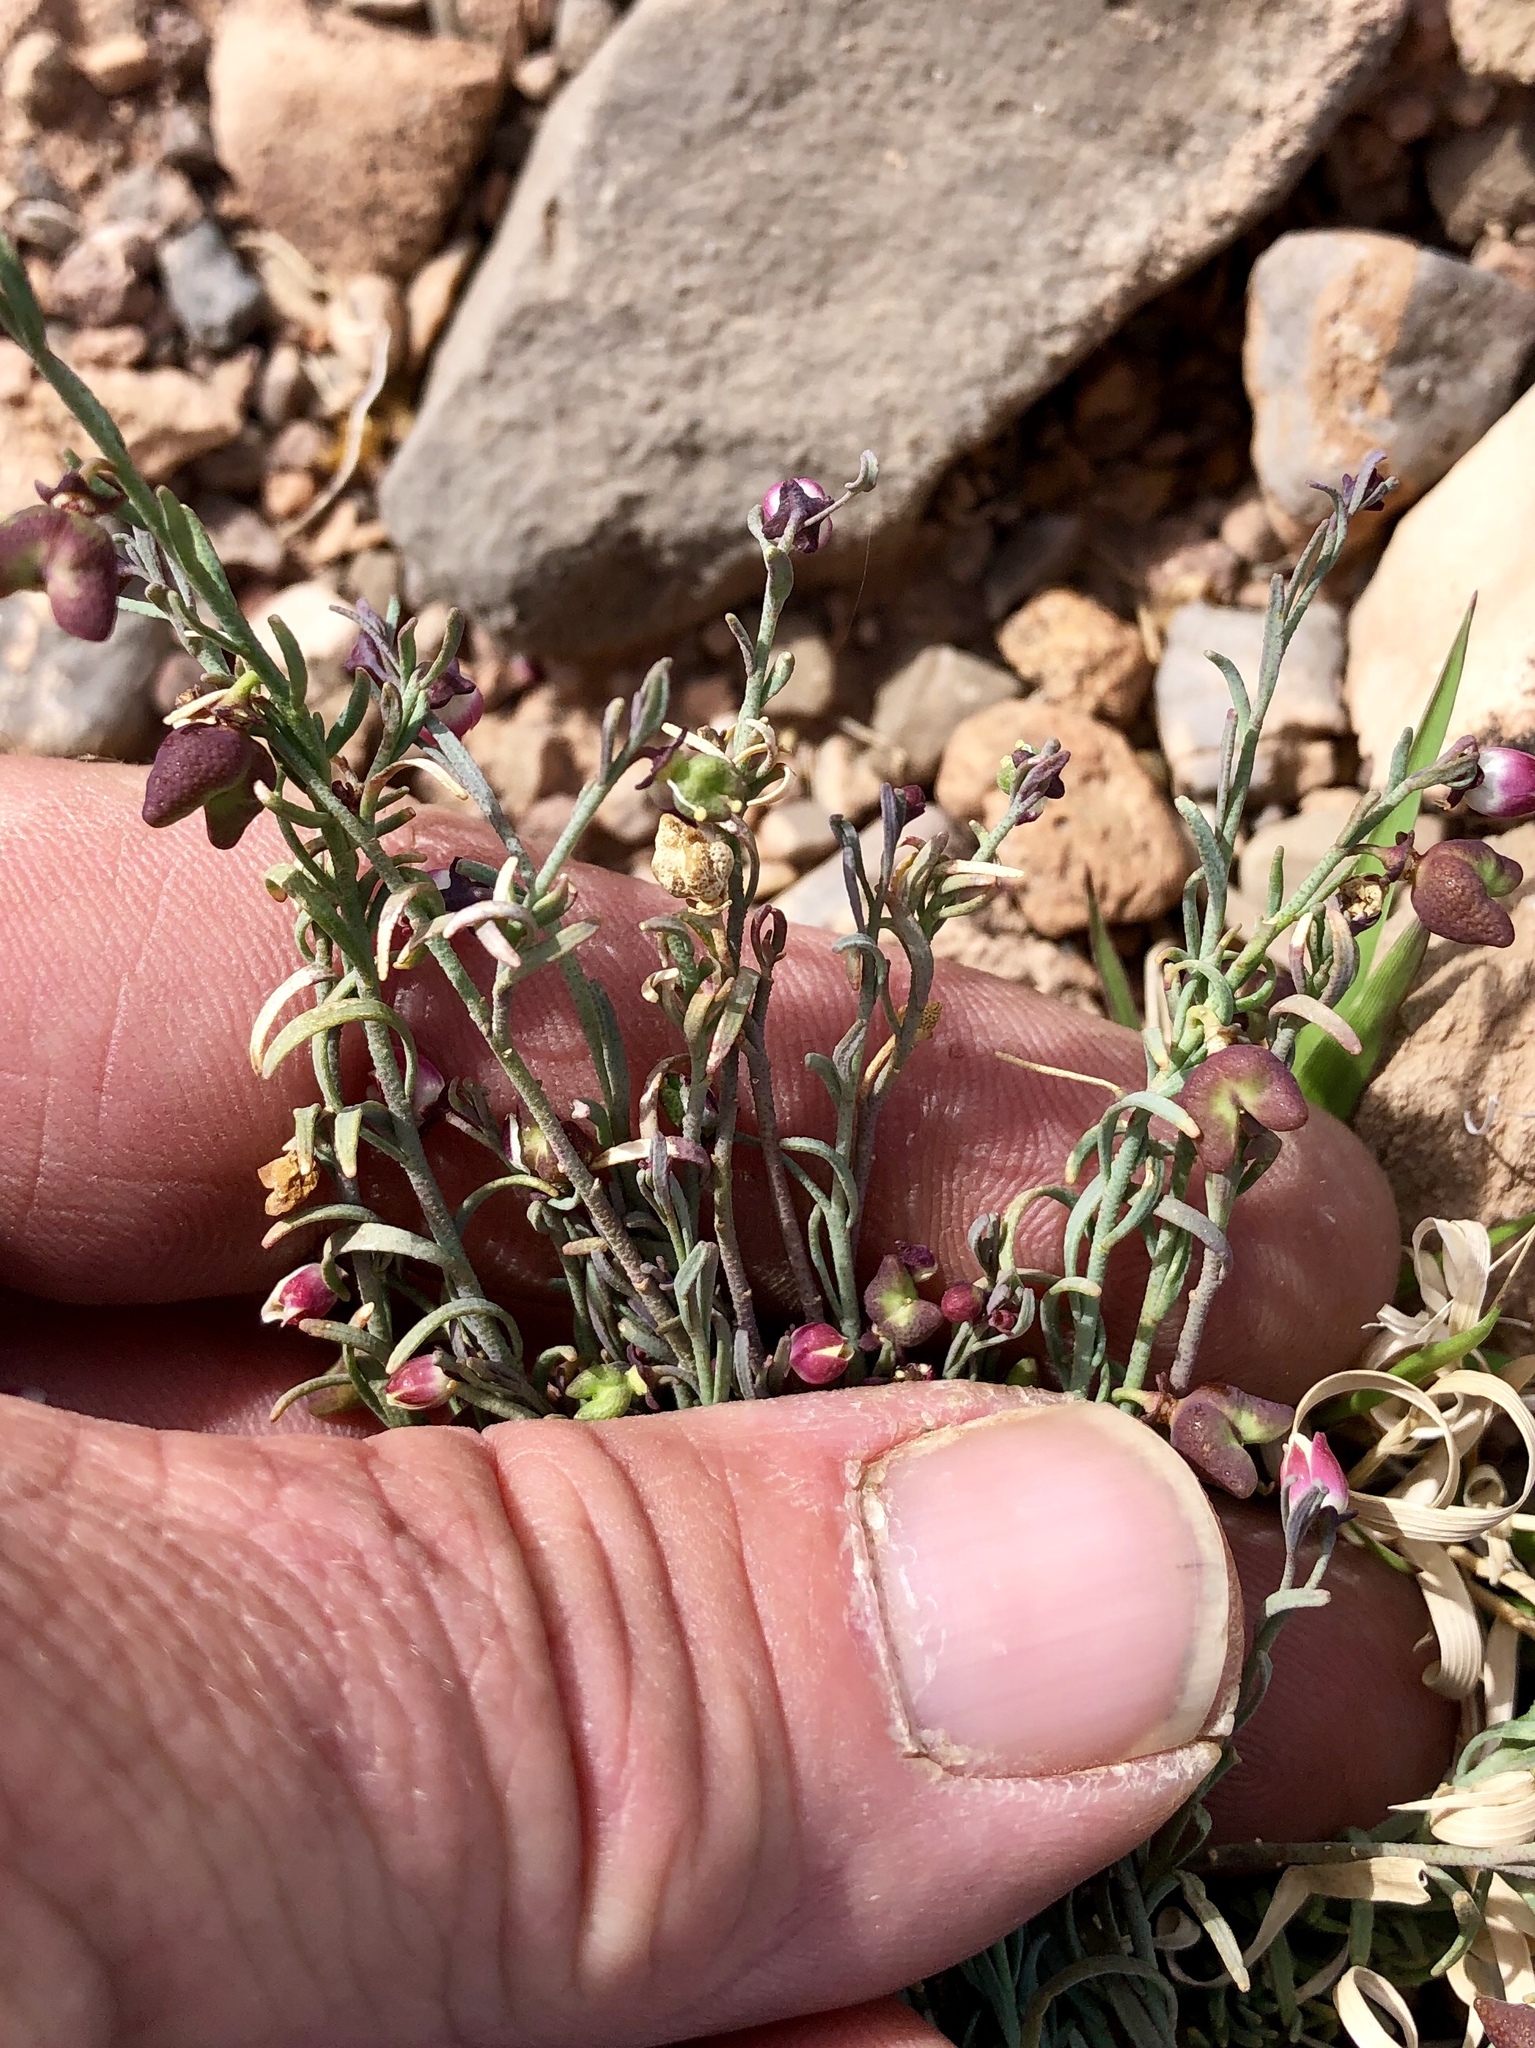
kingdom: Plantae
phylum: Tracheophyta
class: Magnoliopsida
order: Sapindales
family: Rutaceae
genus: Thamnosma
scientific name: Thamnosma texana
